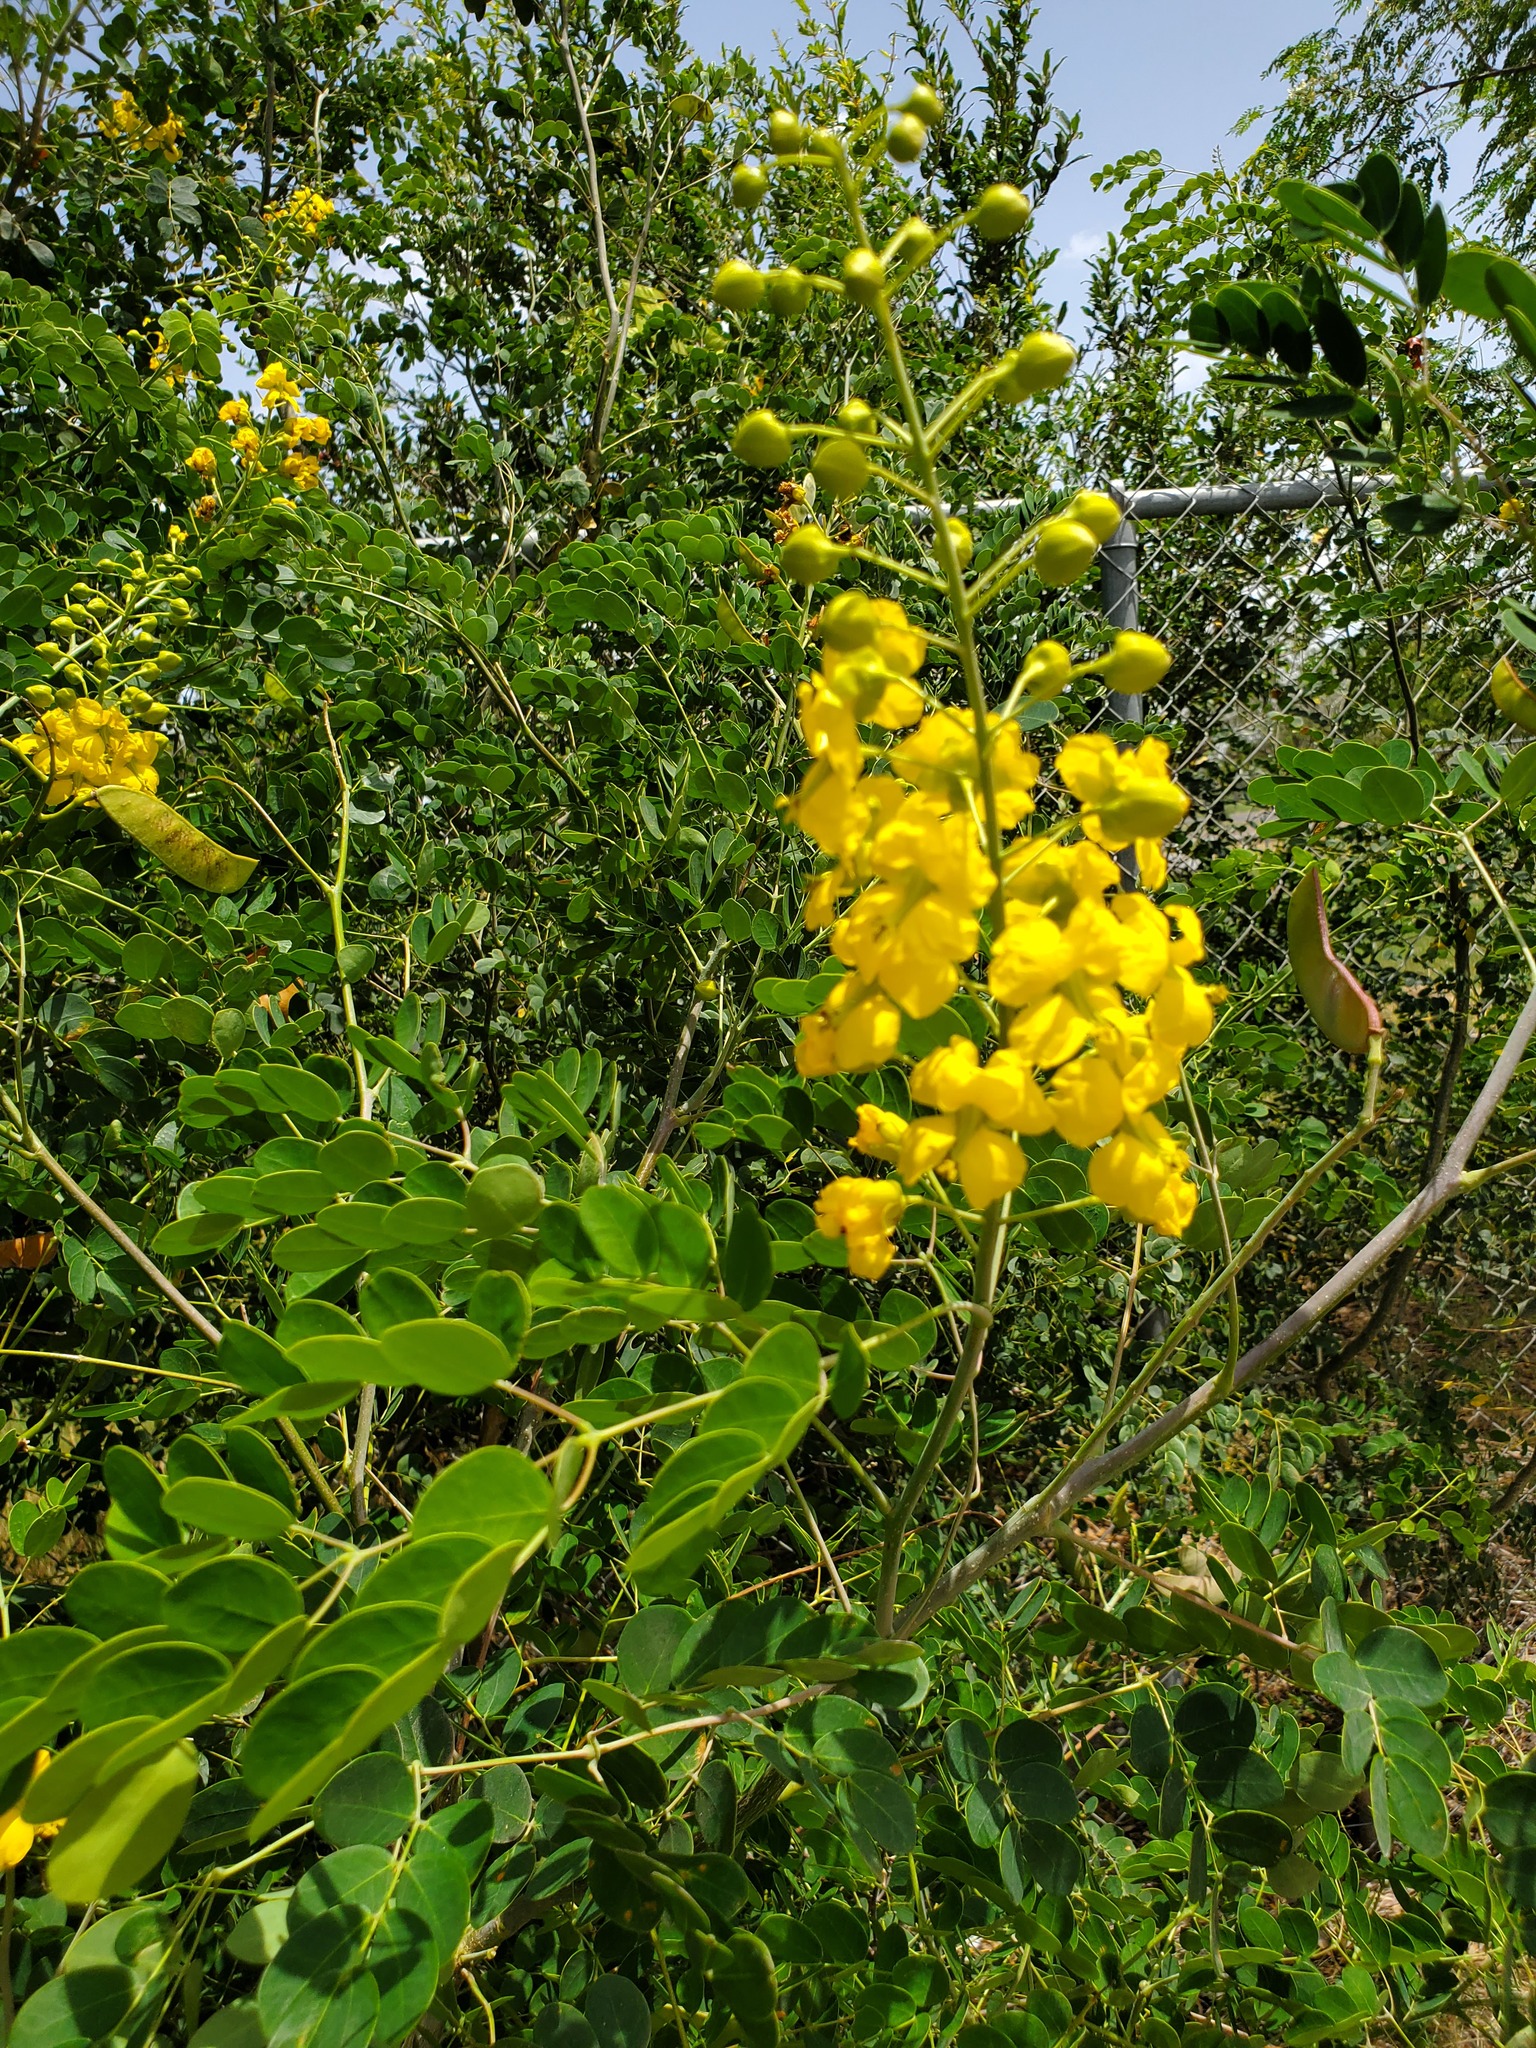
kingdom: Plantae
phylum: Tracheophyta
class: Magnoliopsida
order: Fabales
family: Fabaceae
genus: Erythrostemon
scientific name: Erythrostemon mexicanus
